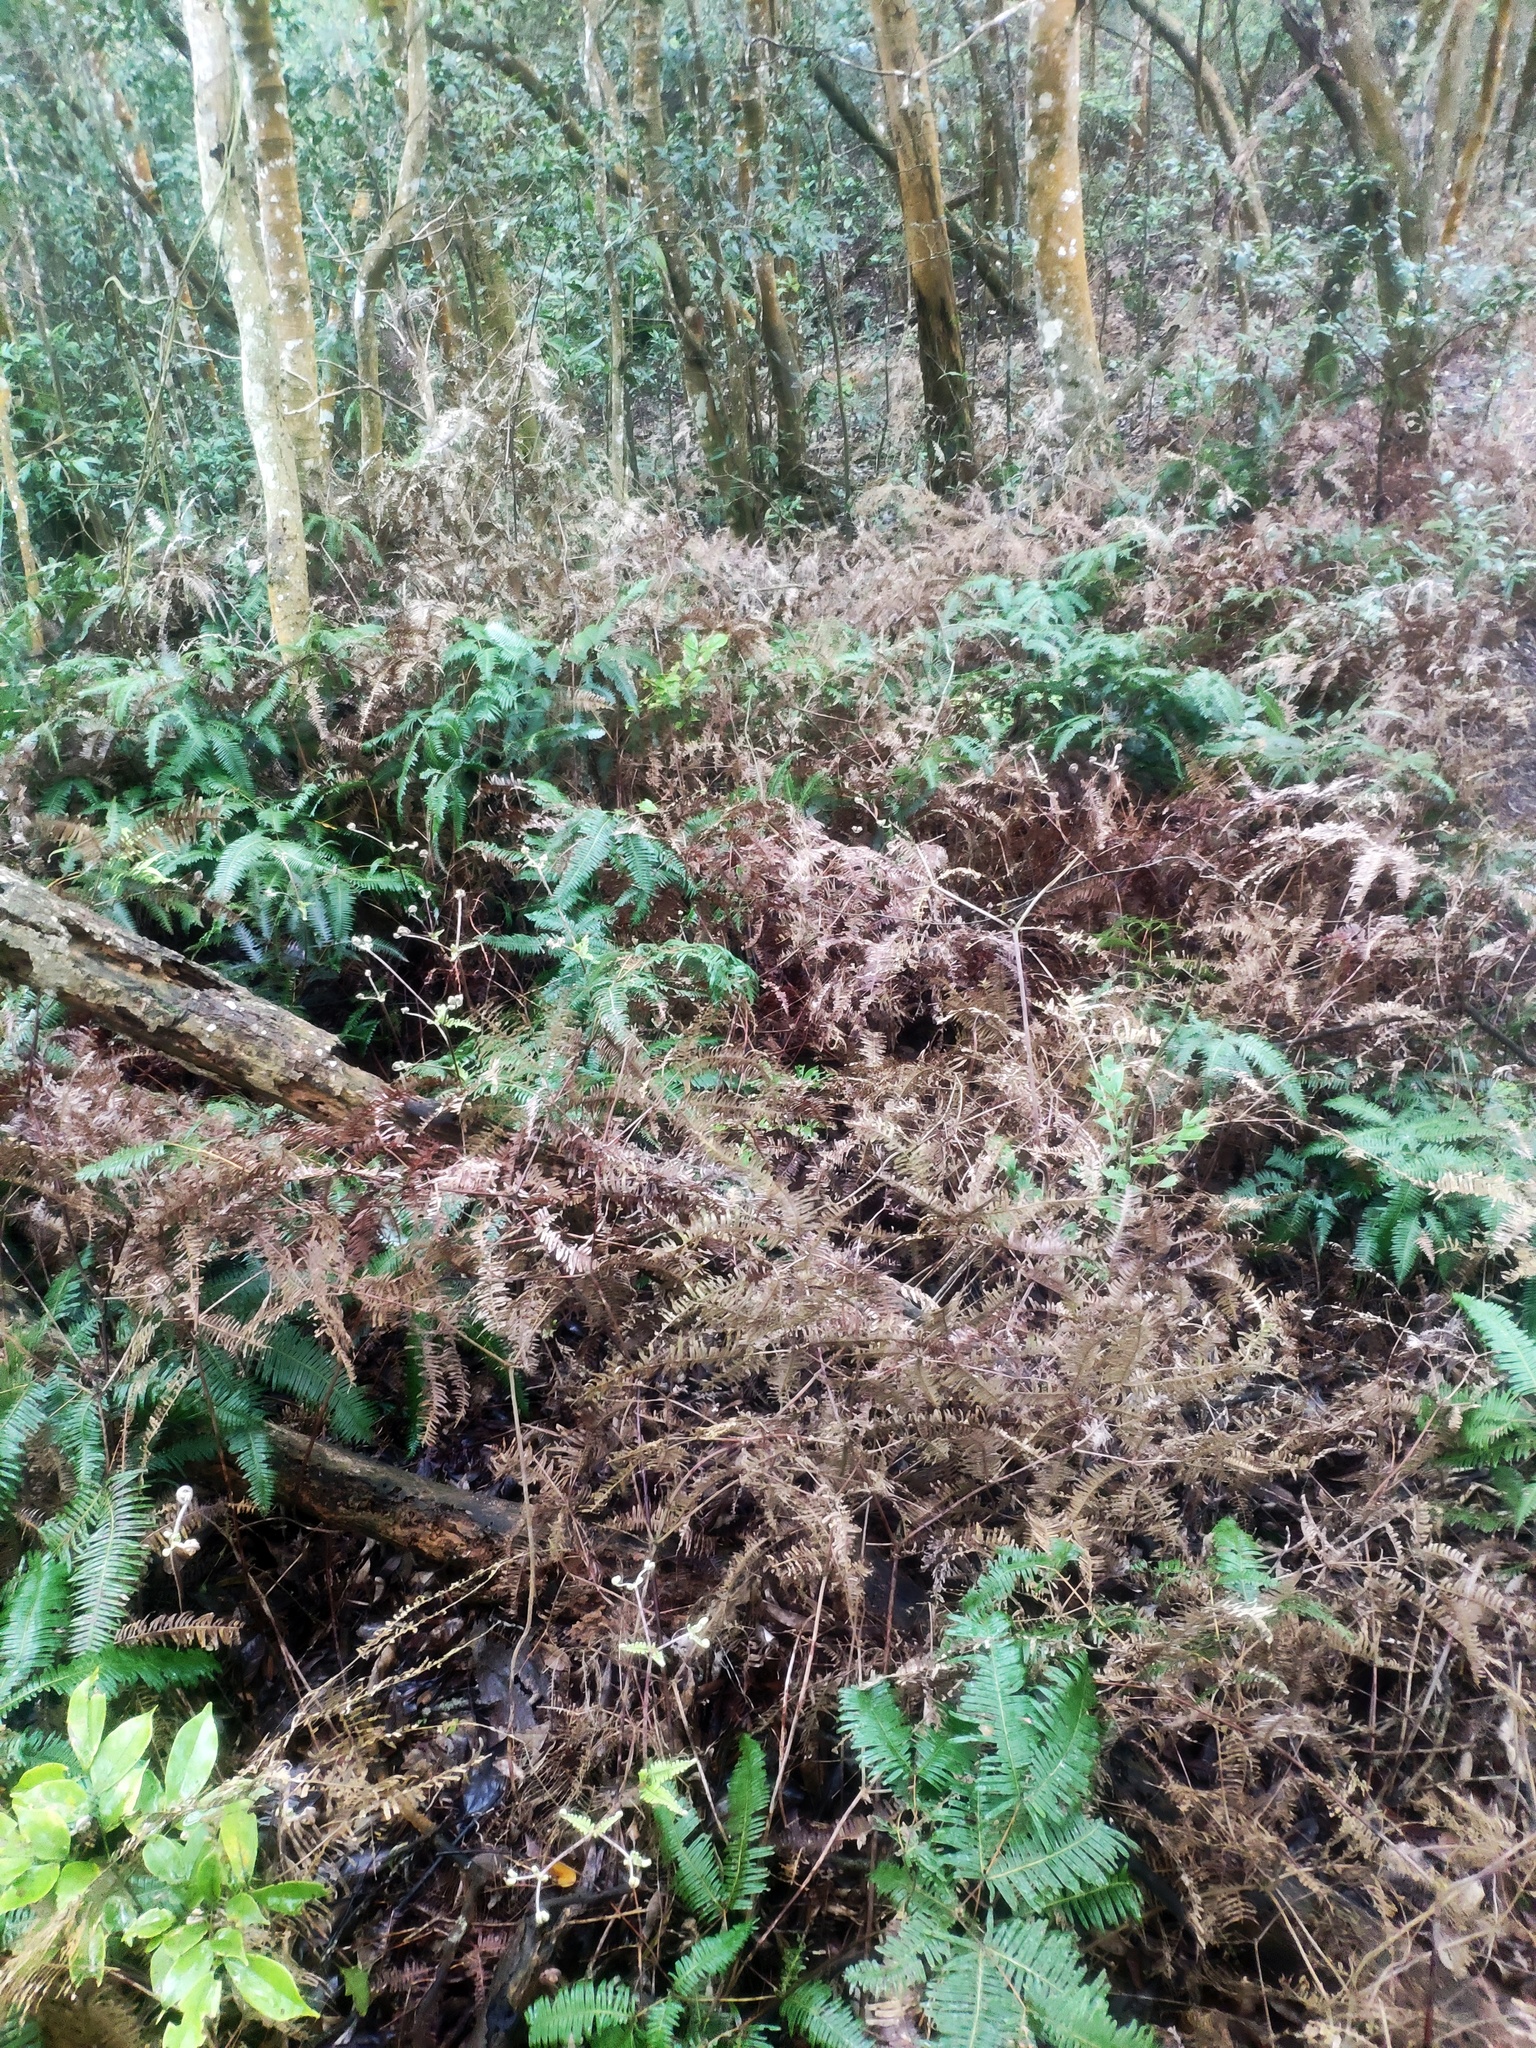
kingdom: Plantae
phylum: Tracheophyta
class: Polypodiopsida
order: Gleicheniales
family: Gleicheniaceae
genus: Dicranopteris
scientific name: Dicranopteris linearis
